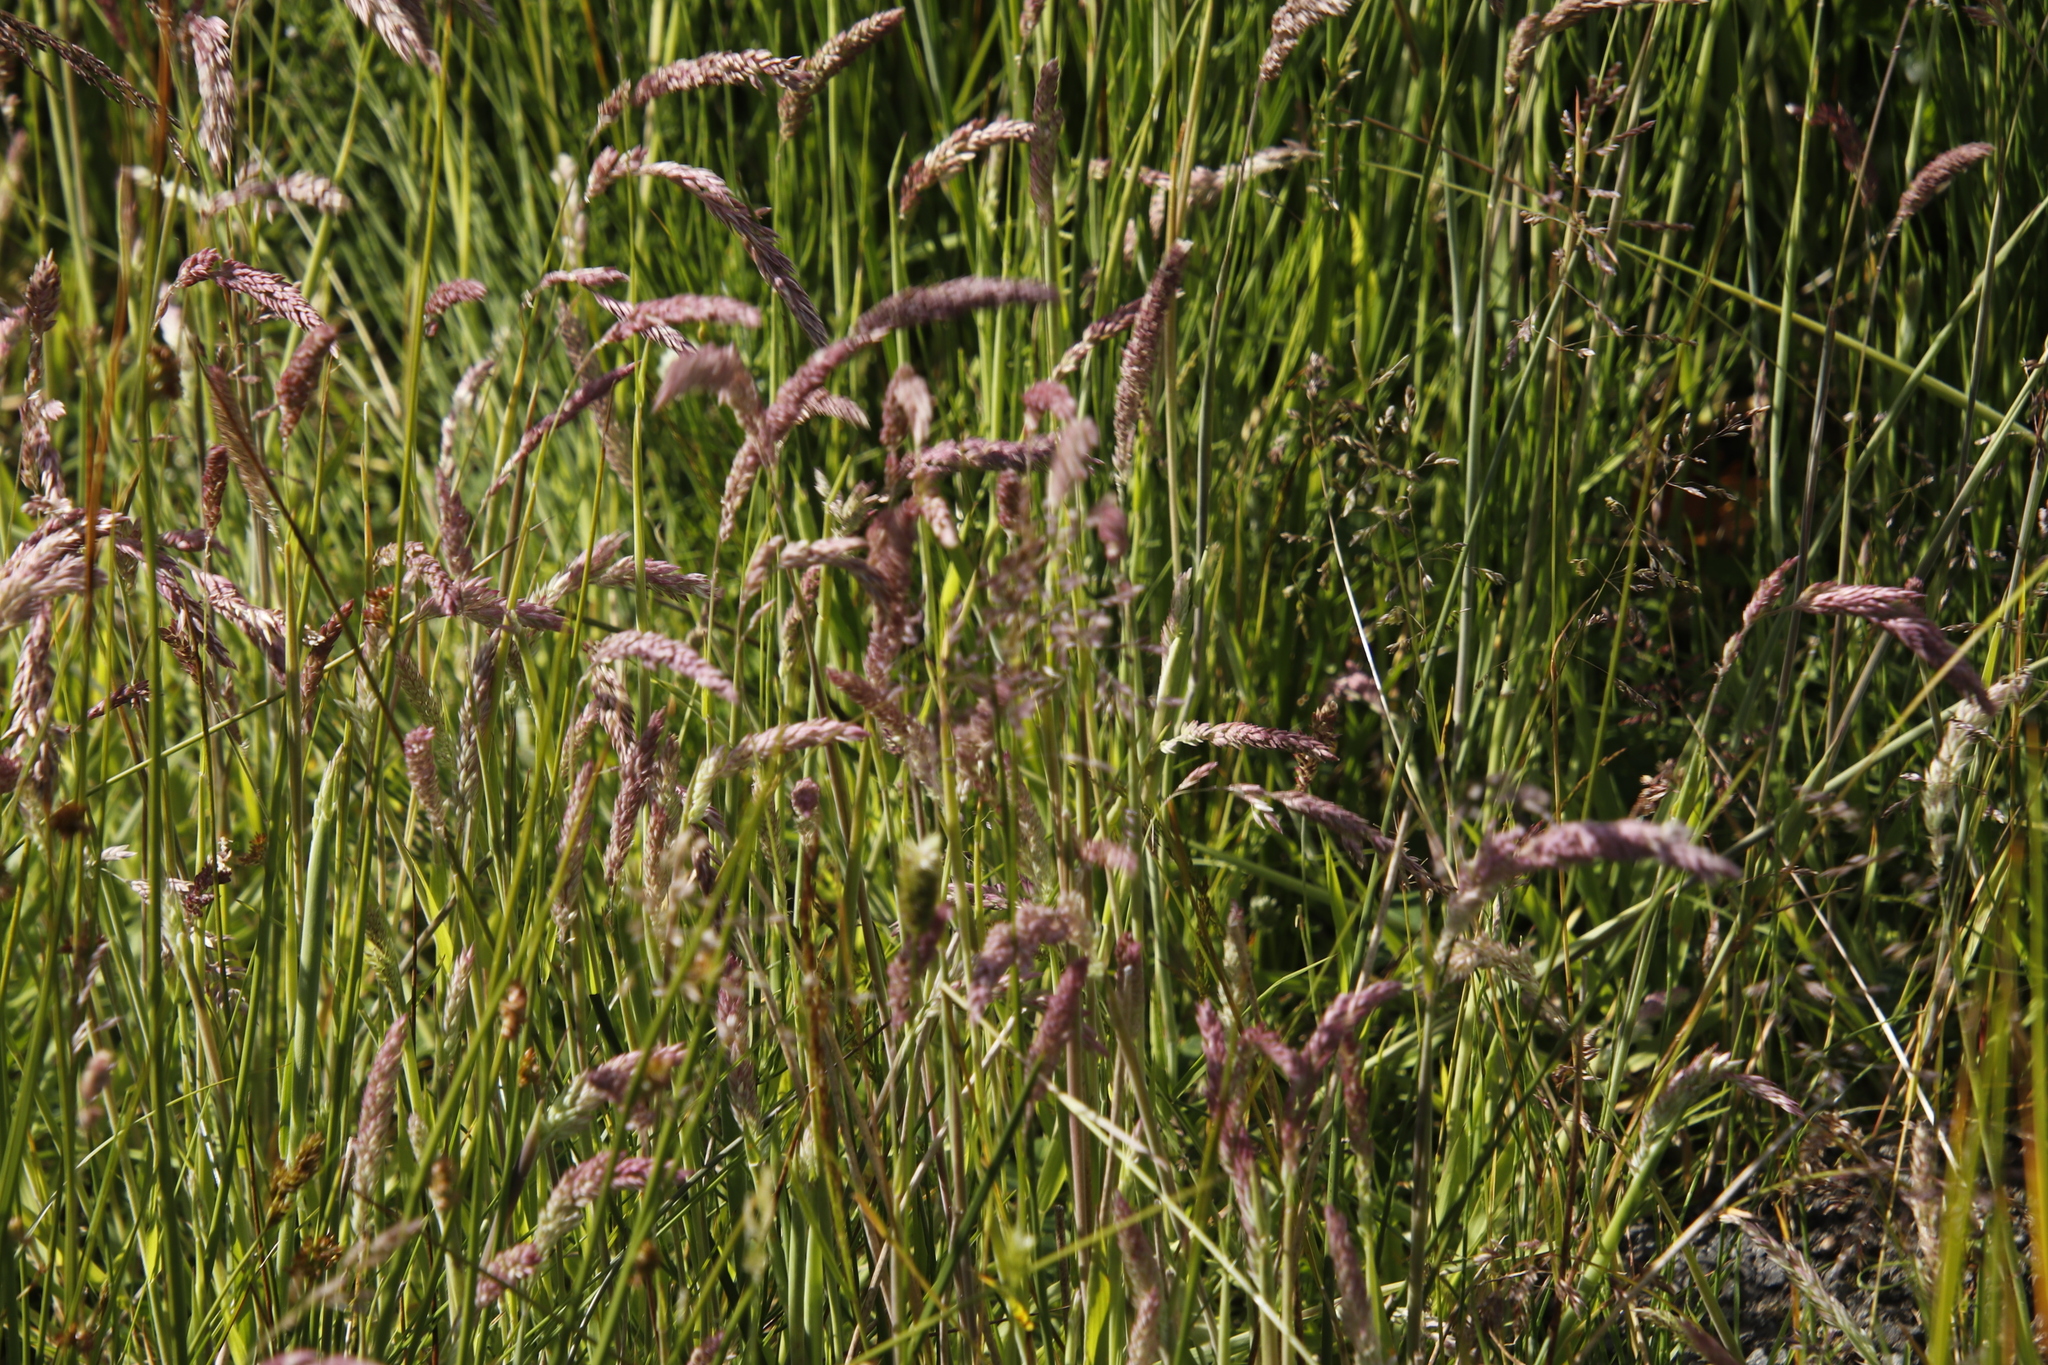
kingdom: Plantae
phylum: Tracheophyta
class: Liliopsida
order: Poales
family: Poaceae
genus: Holcus
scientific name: Holcus lanatus
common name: Yorkshire-fog
